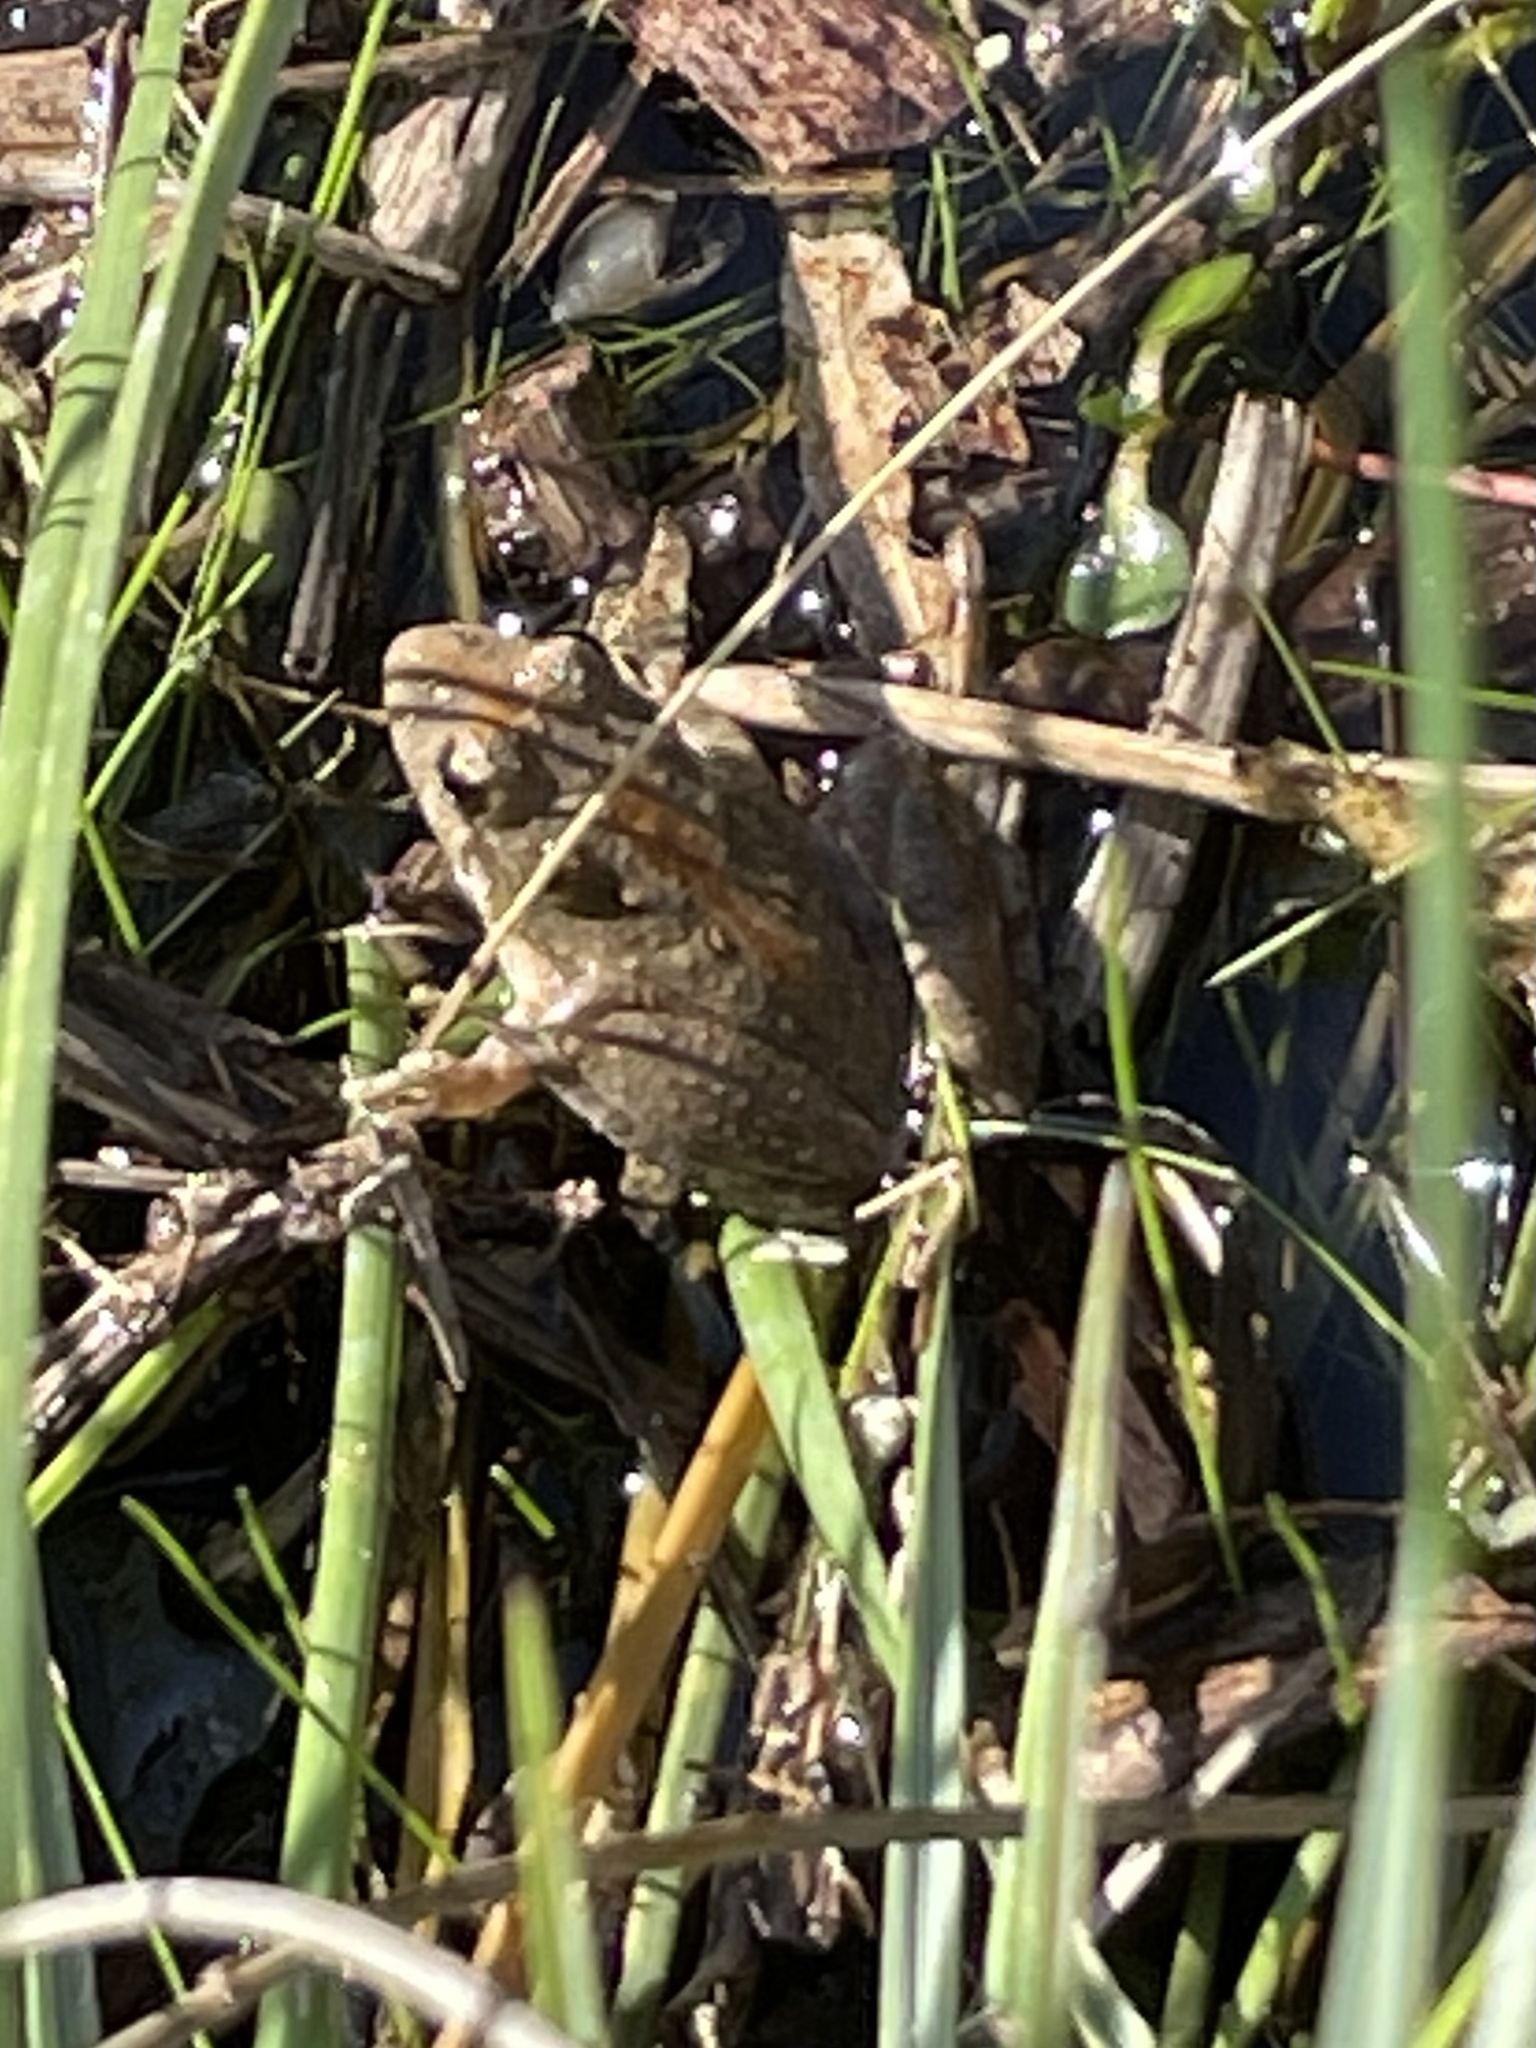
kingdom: Animalia
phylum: Chordata
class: Amphibia
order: Anura
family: Hylidae
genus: Acris
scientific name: Acris blanchardi
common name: Blanchard's cricket frog
